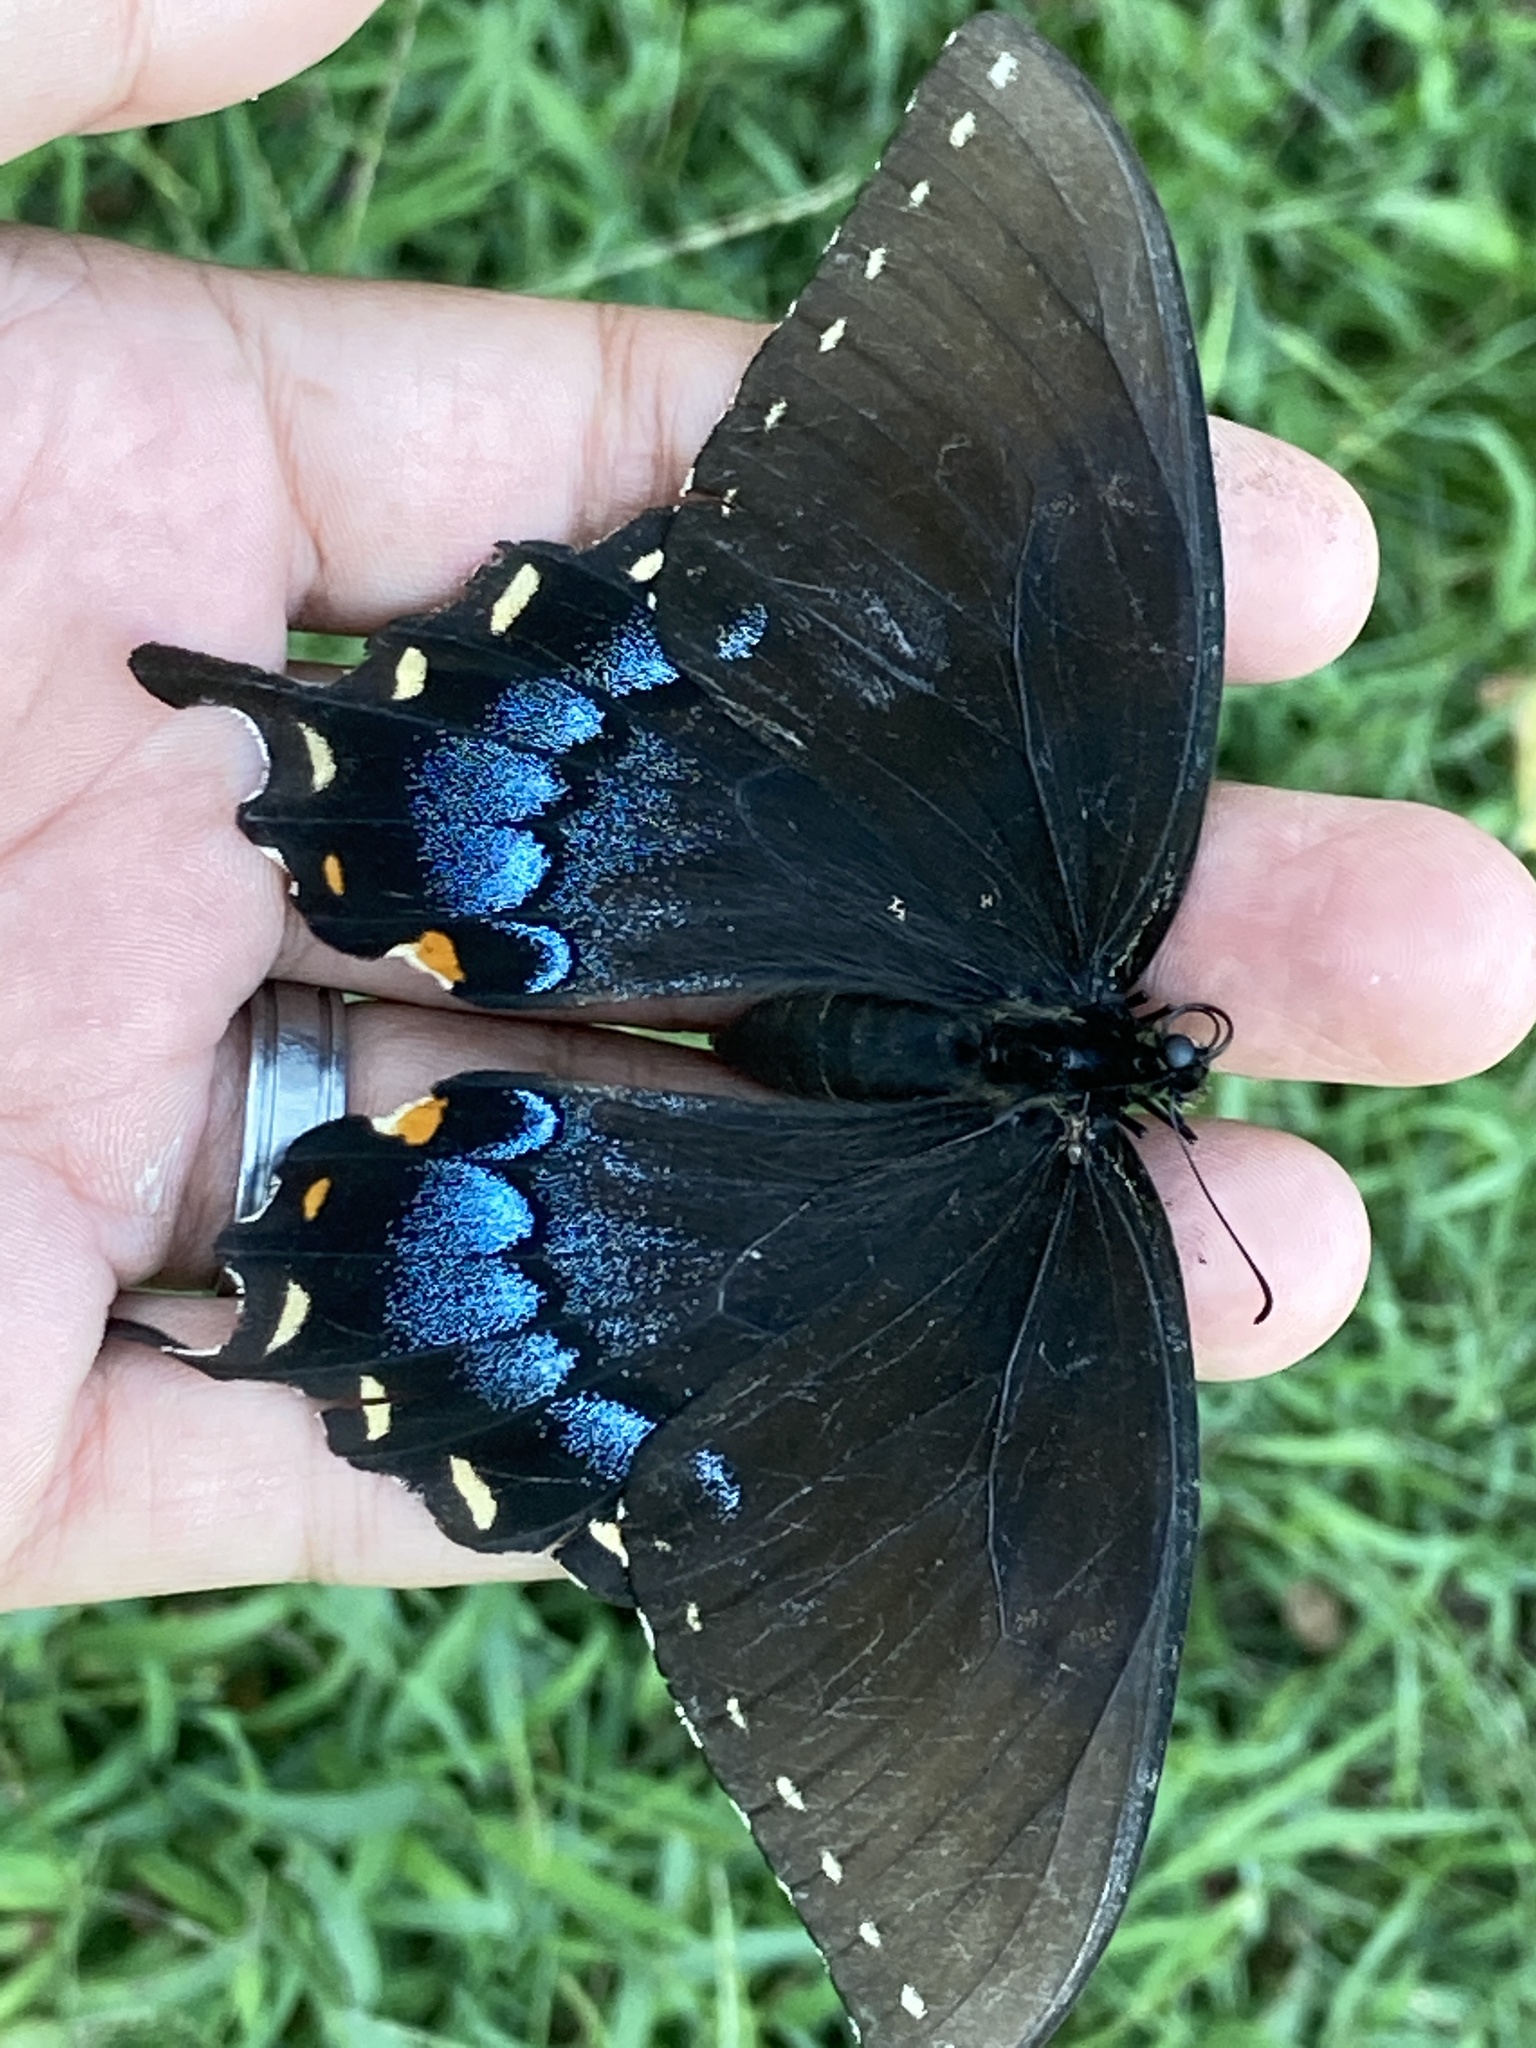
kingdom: Animalia
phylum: Arthropoda
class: Insecta
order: Lepidoptera
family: Papilionidae
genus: Papilio
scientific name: Papilio glaucus
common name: Tiger swallowtail
